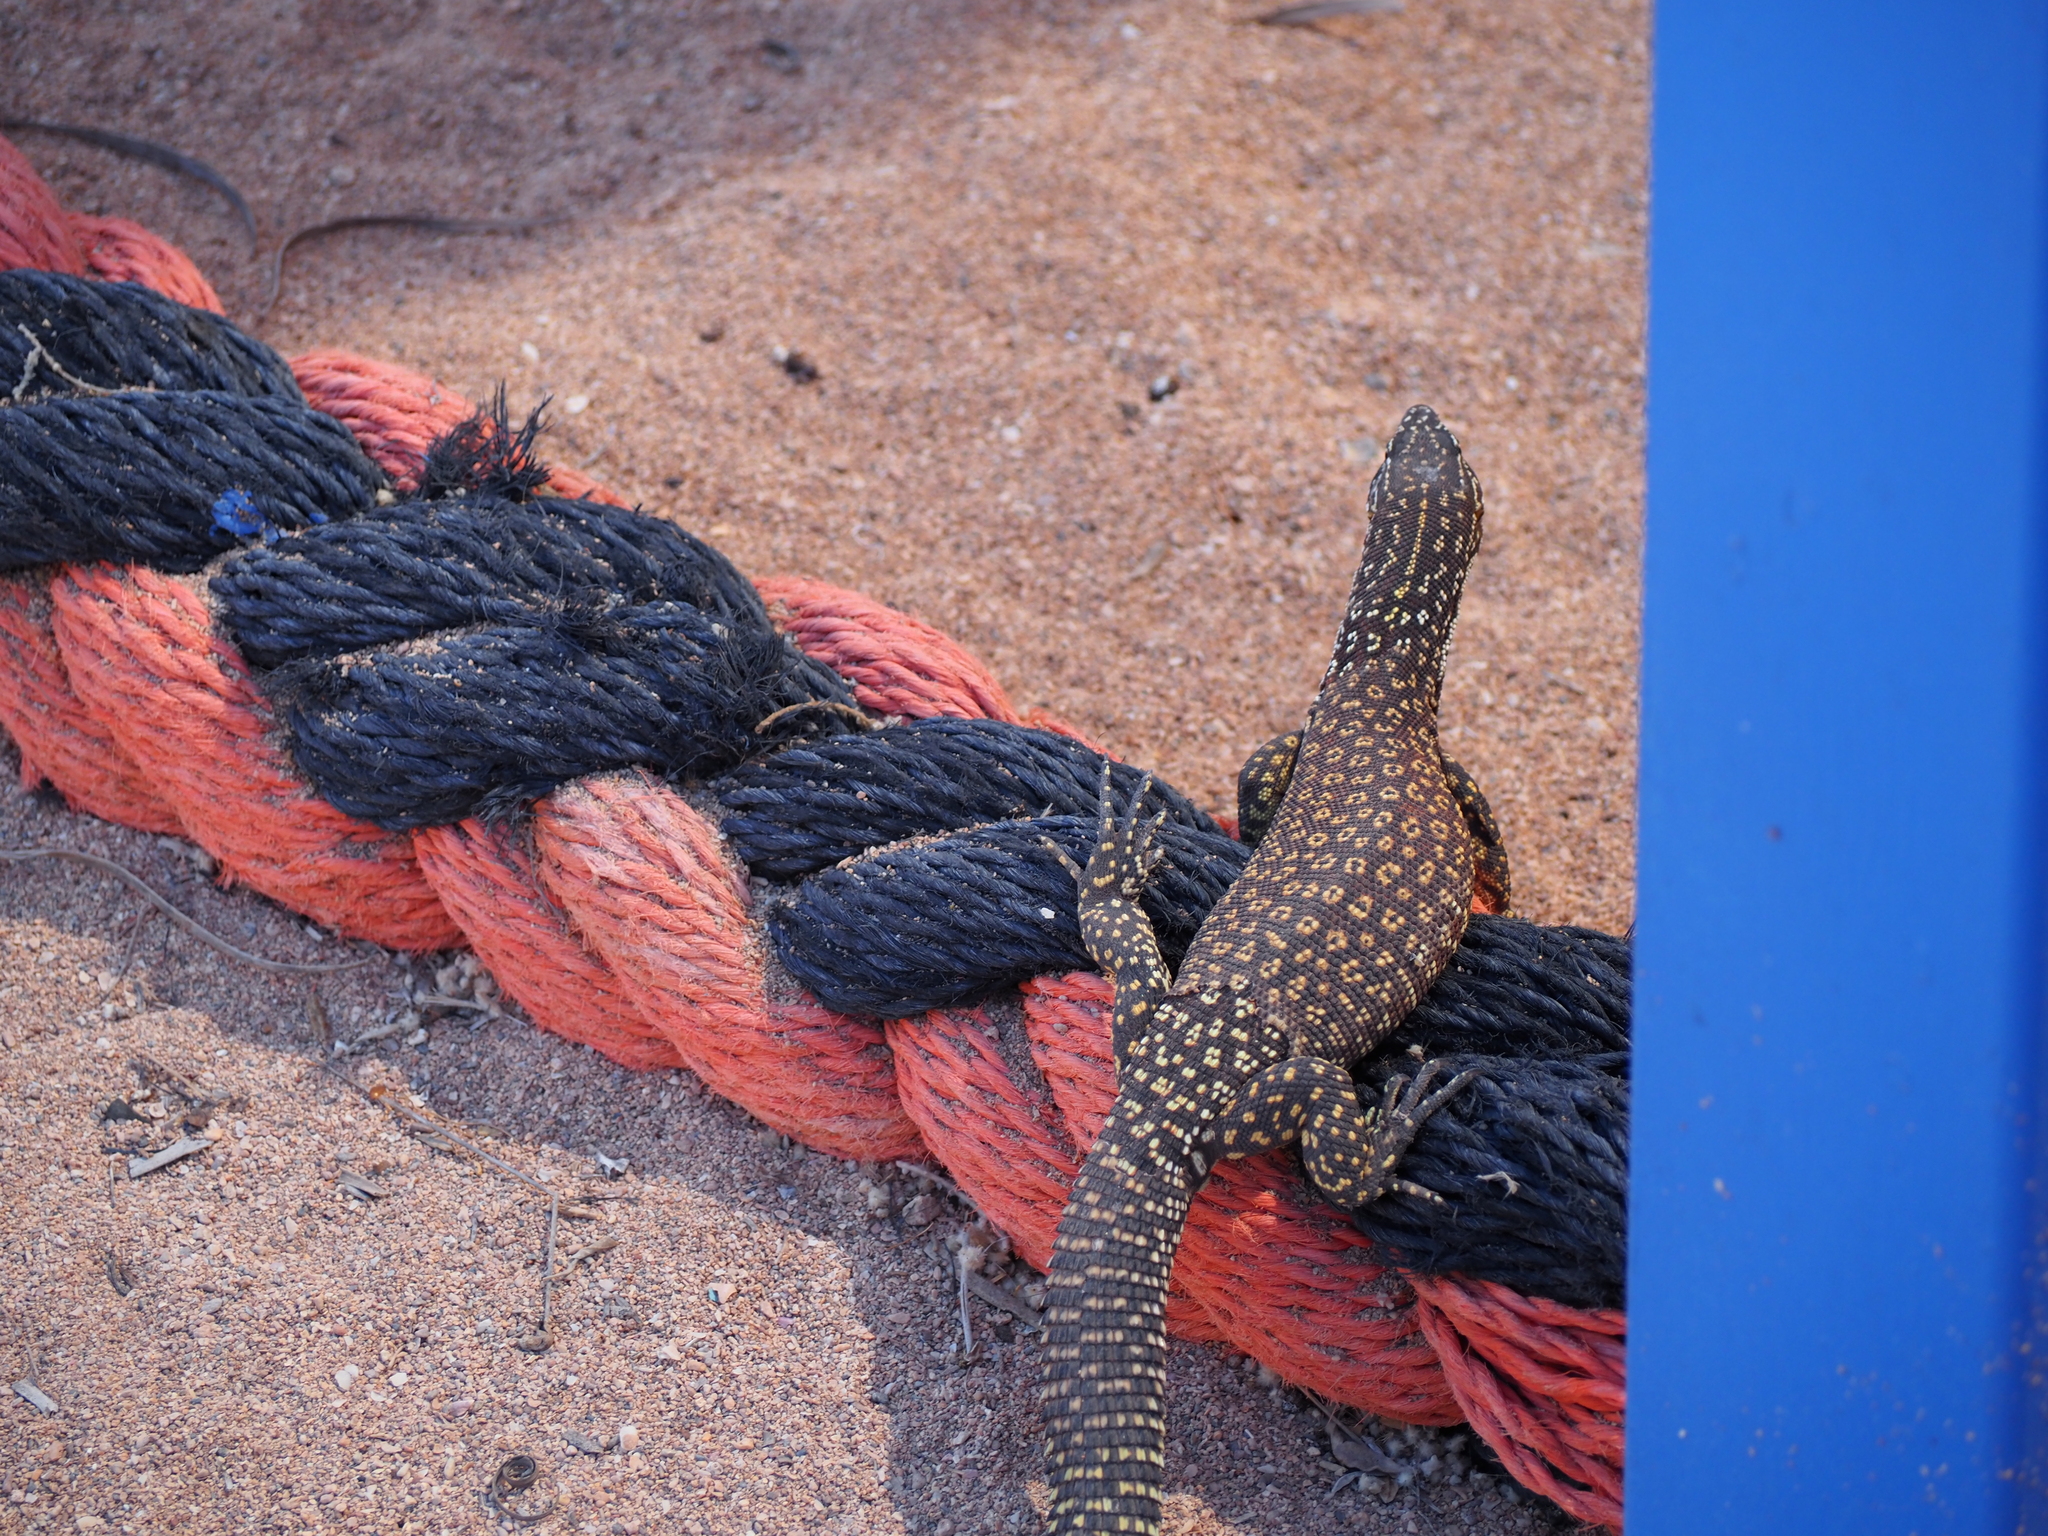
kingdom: Animalia
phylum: Chordata
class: Squamata
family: Varanidae
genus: Varanus
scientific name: Varanus acanthurus
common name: Ridgetail monitor
